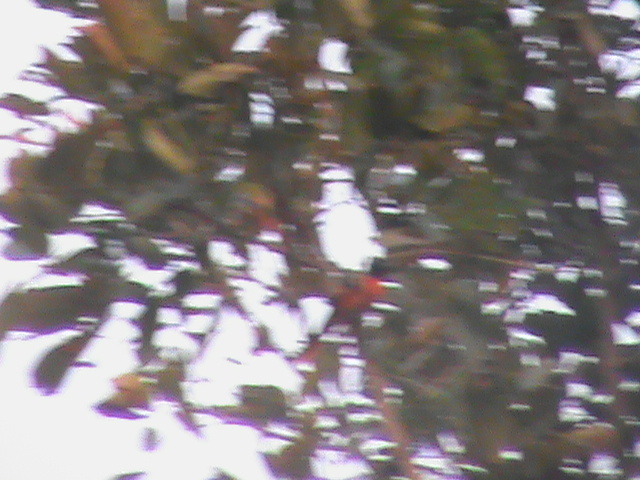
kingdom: Animalia
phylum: Chordata
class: Aves
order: Passeriformes
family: Campephagidae
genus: Pericrocotus
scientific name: Pericrocotus flammeus
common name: Orange minivet
